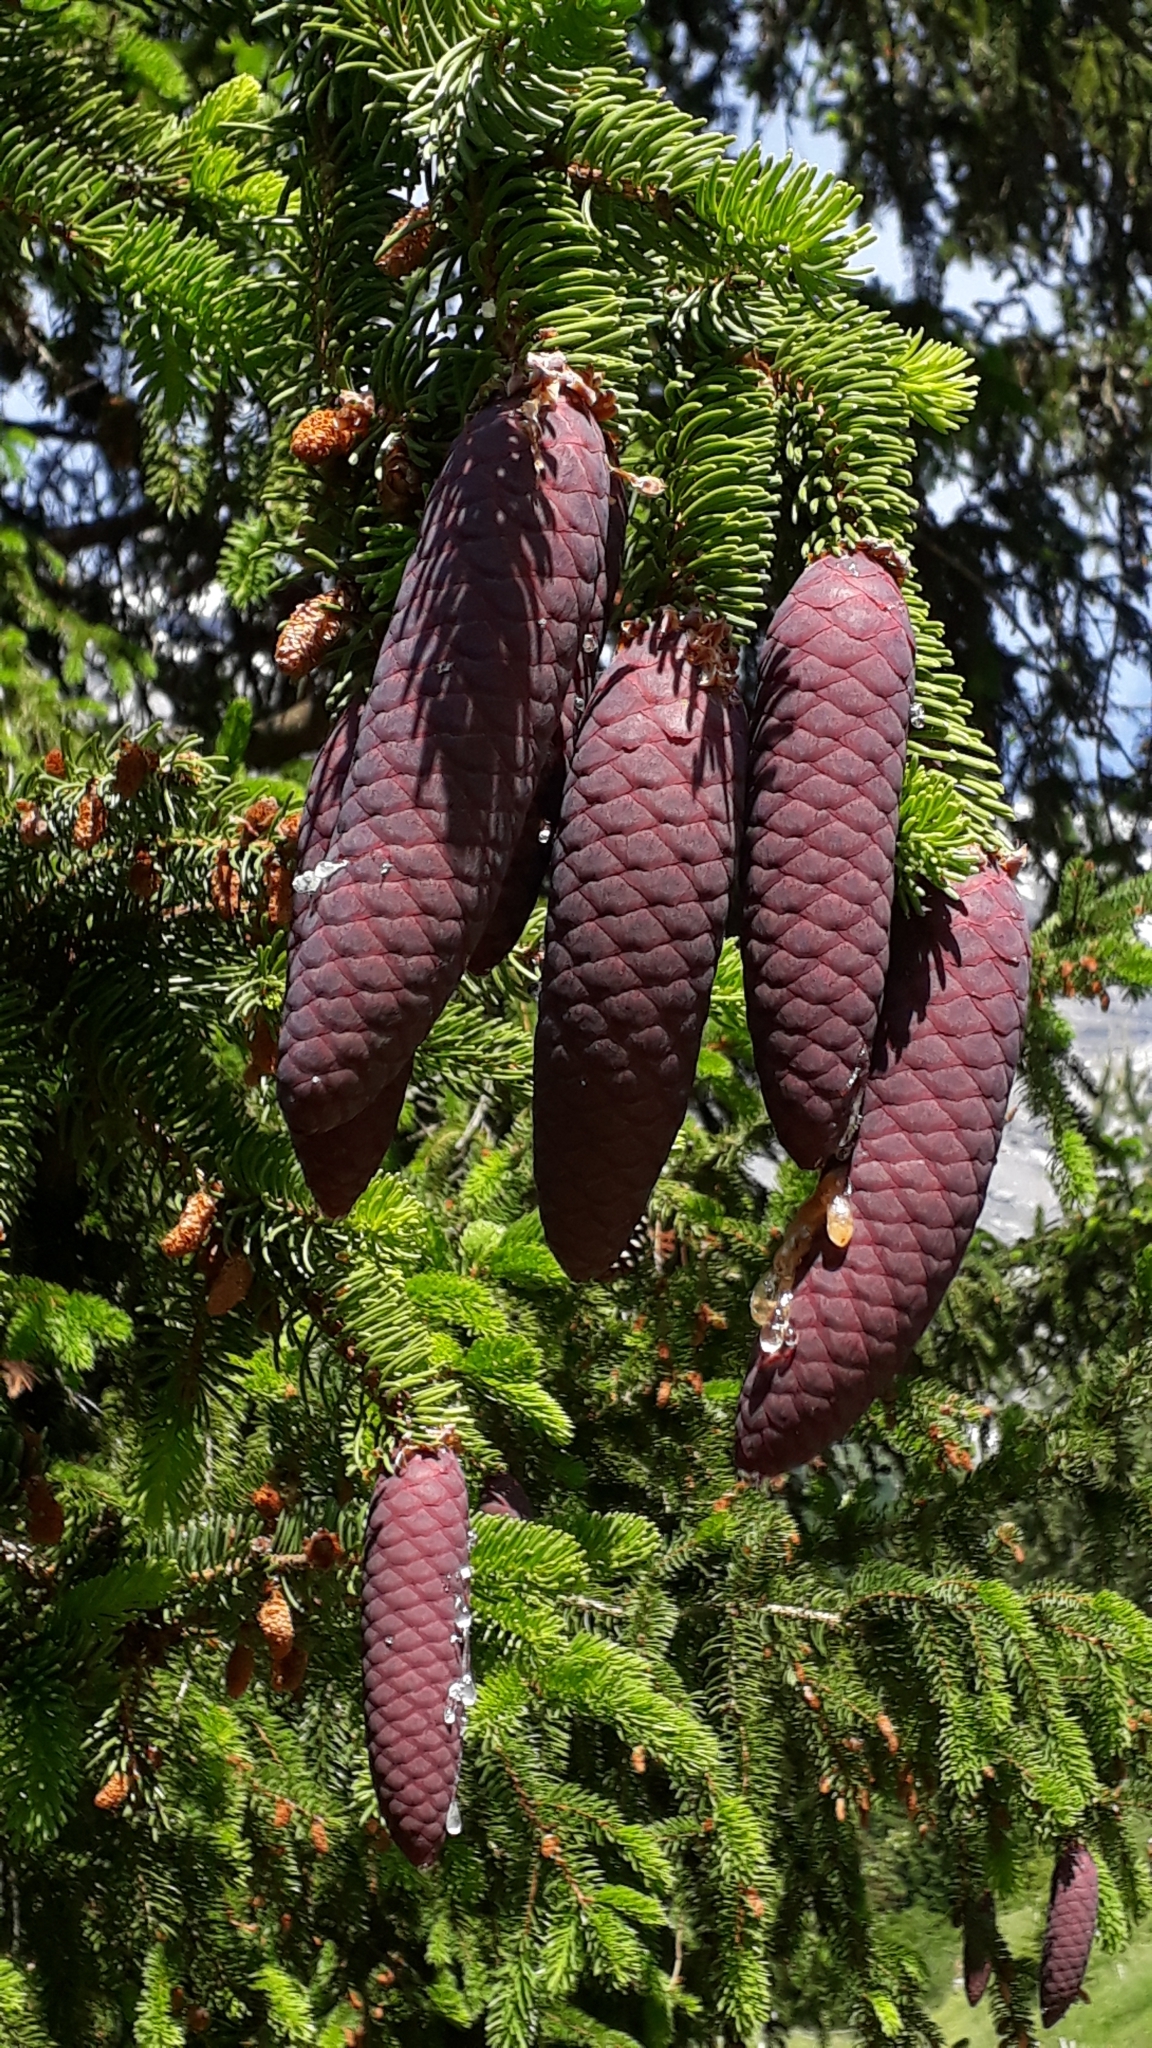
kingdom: Plantae
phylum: Tracheophyta
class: Pinopsida
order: Pinales
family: Pinaceae
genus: Picea
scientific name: Picea abies
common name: Norway spruce
